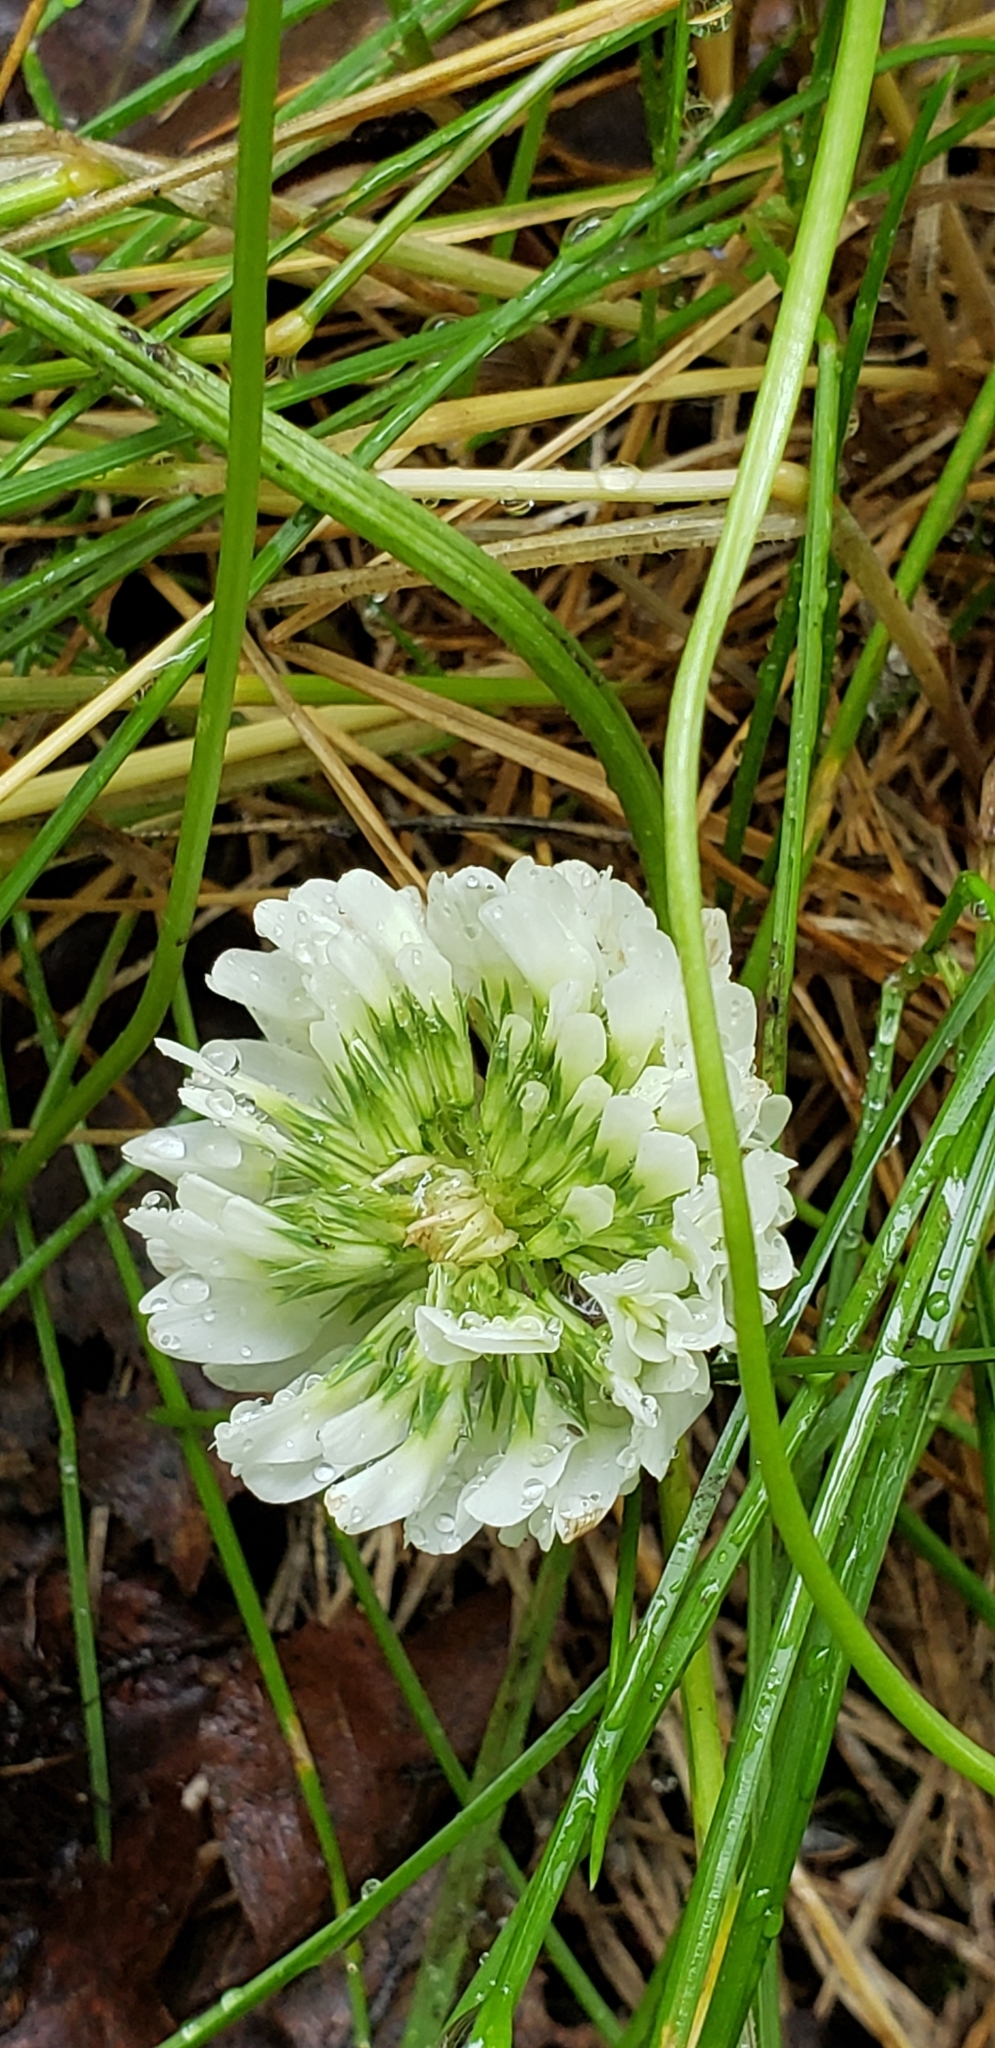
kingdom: Plantae
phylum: Tracheophyta
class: Magnoliopsida
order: Fabales
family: Fabaceae
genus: Trifolium
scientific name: Trifolium repens
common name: White clover
